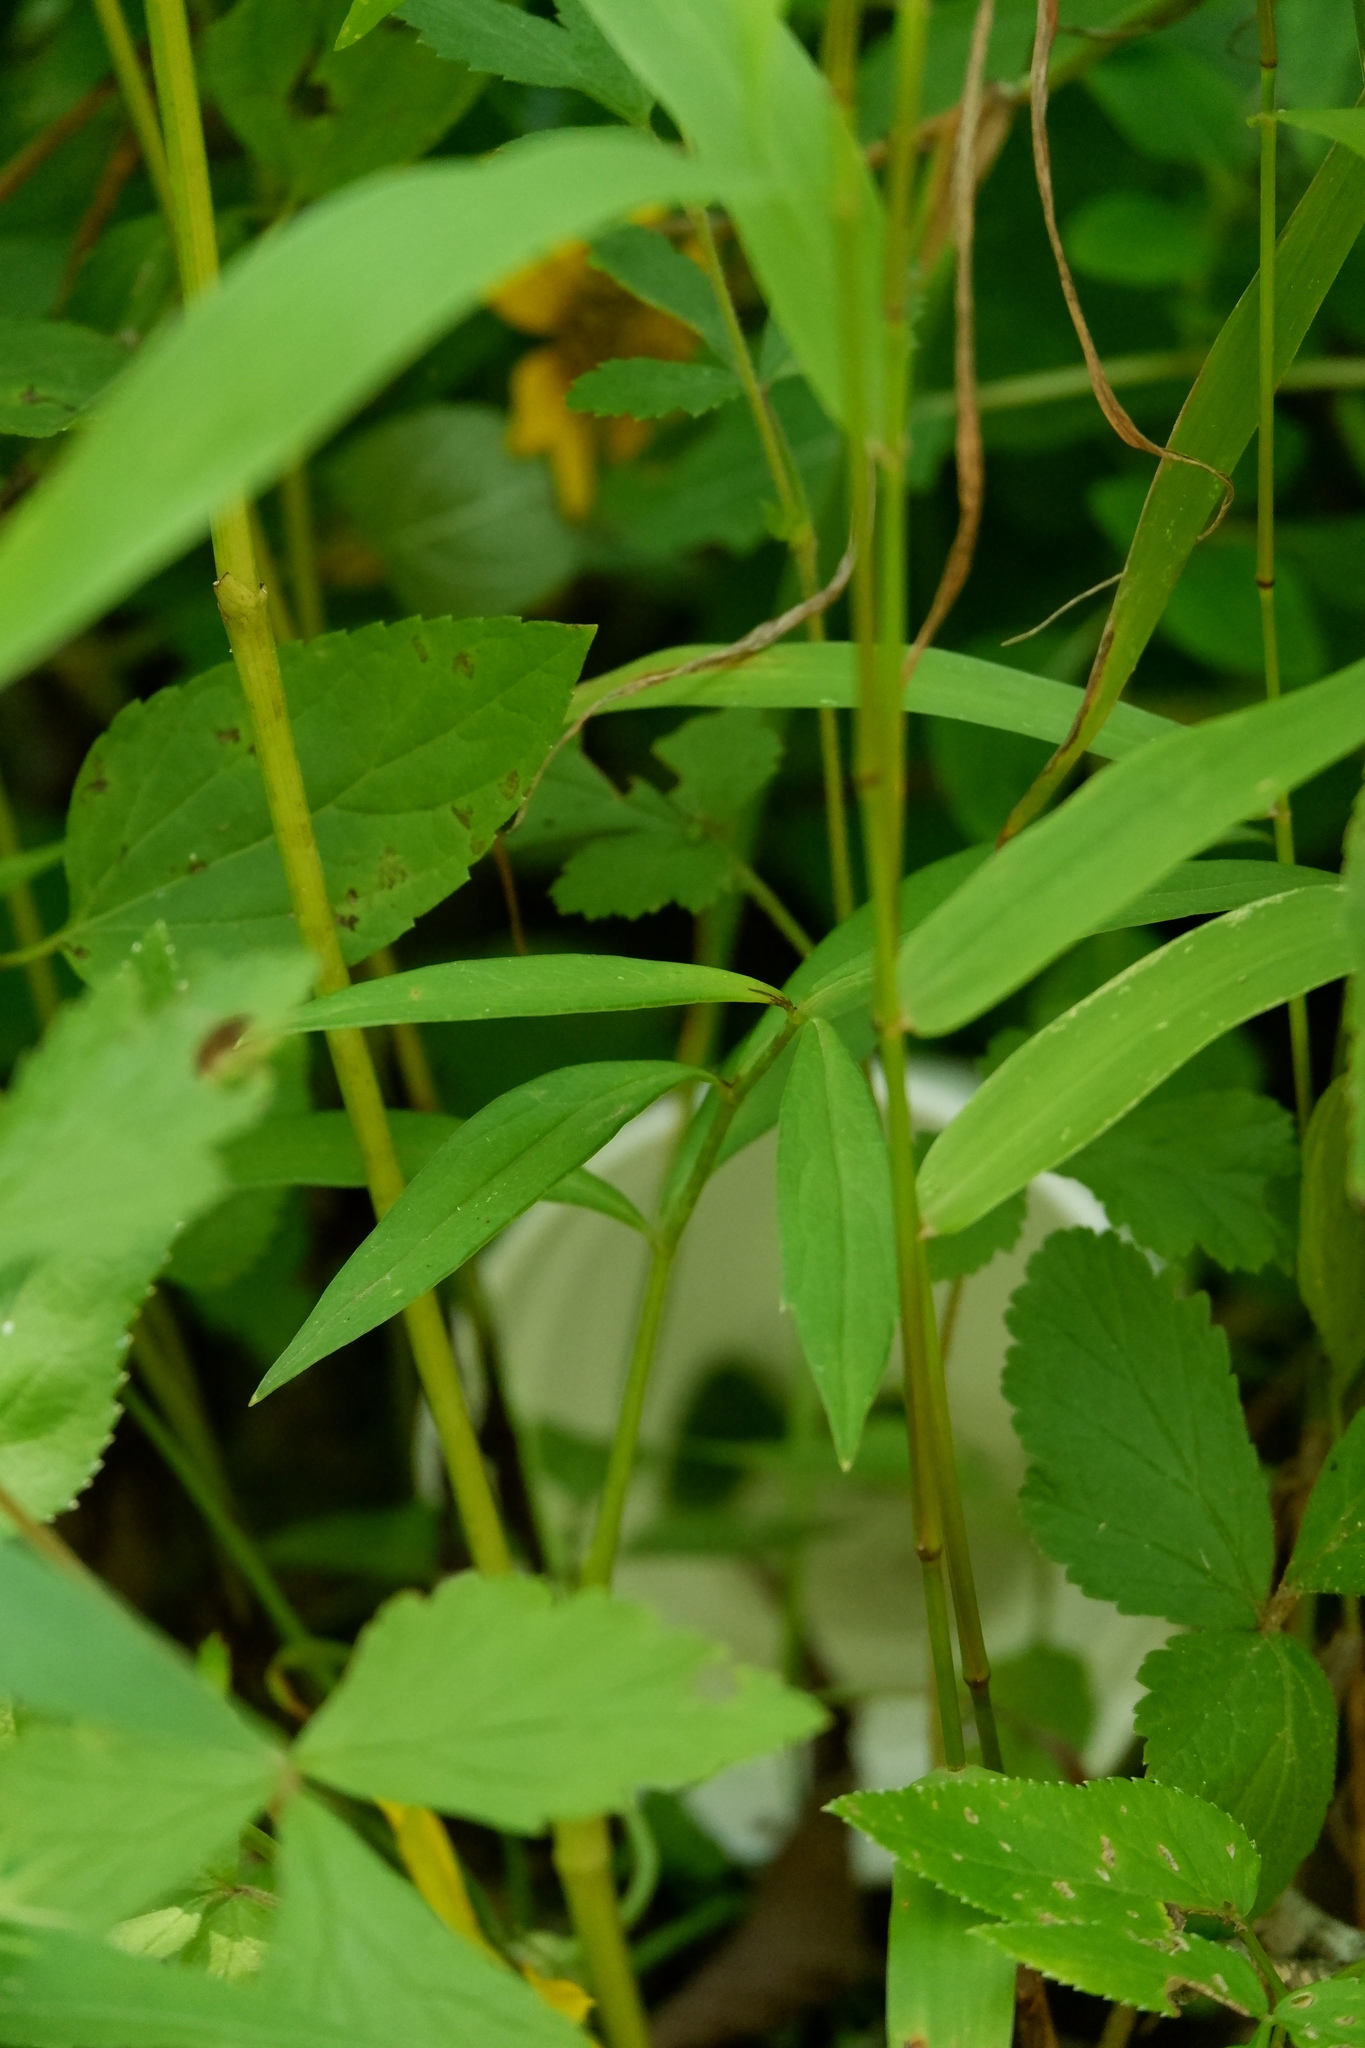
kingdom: Plantae
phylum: Tracheophyta
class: Magnoliopsida
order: Apiales
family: Apiaceae
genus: Oxypolis
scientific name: Oxypolis rigidior
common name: Cowbane
